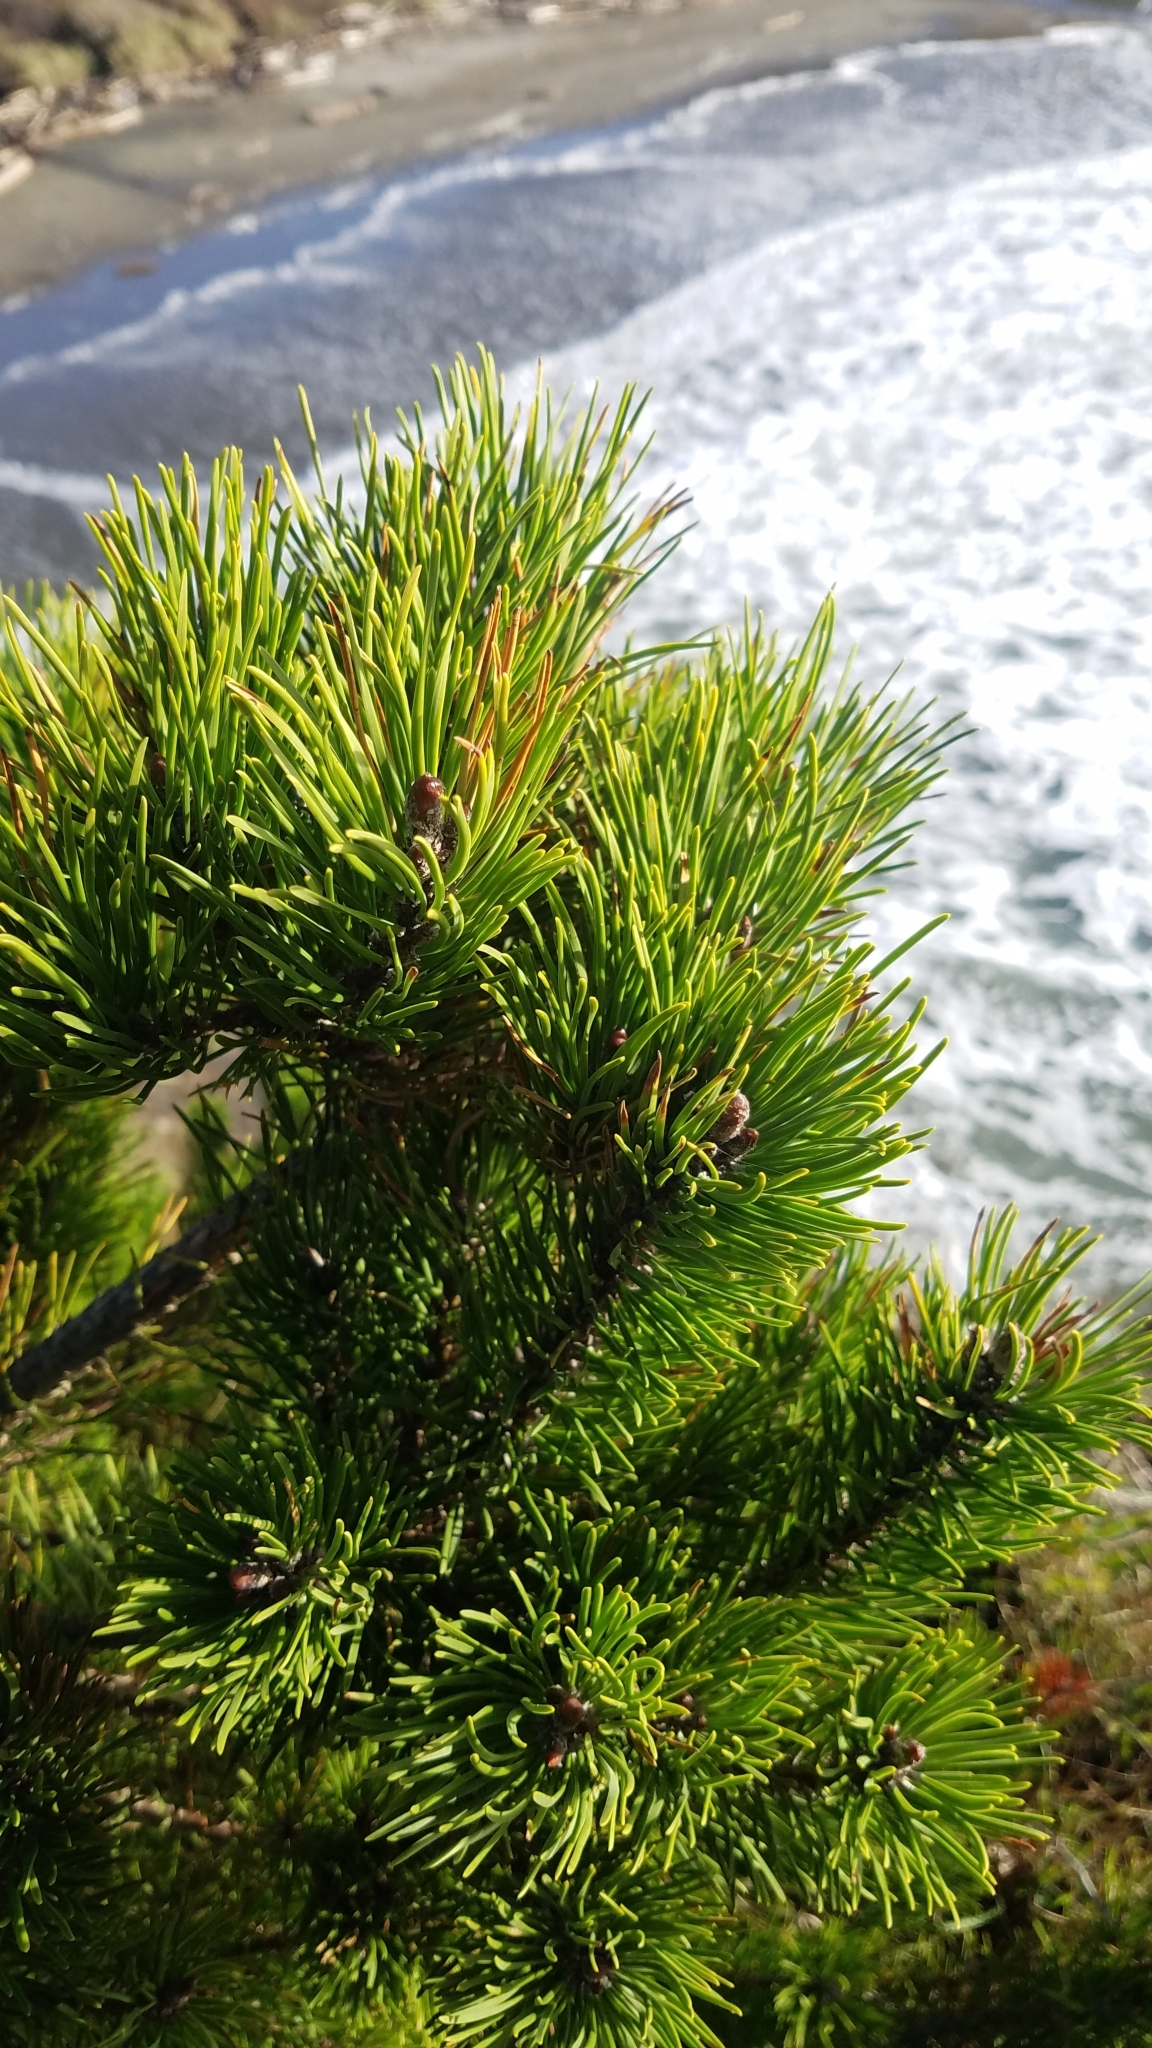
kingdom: Plantae
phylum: Tracheophyta
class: Pinopsida
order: Pinales
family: Pinaceae
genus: Pinus
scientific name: Pinus contorta
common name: Lodgepole pine
